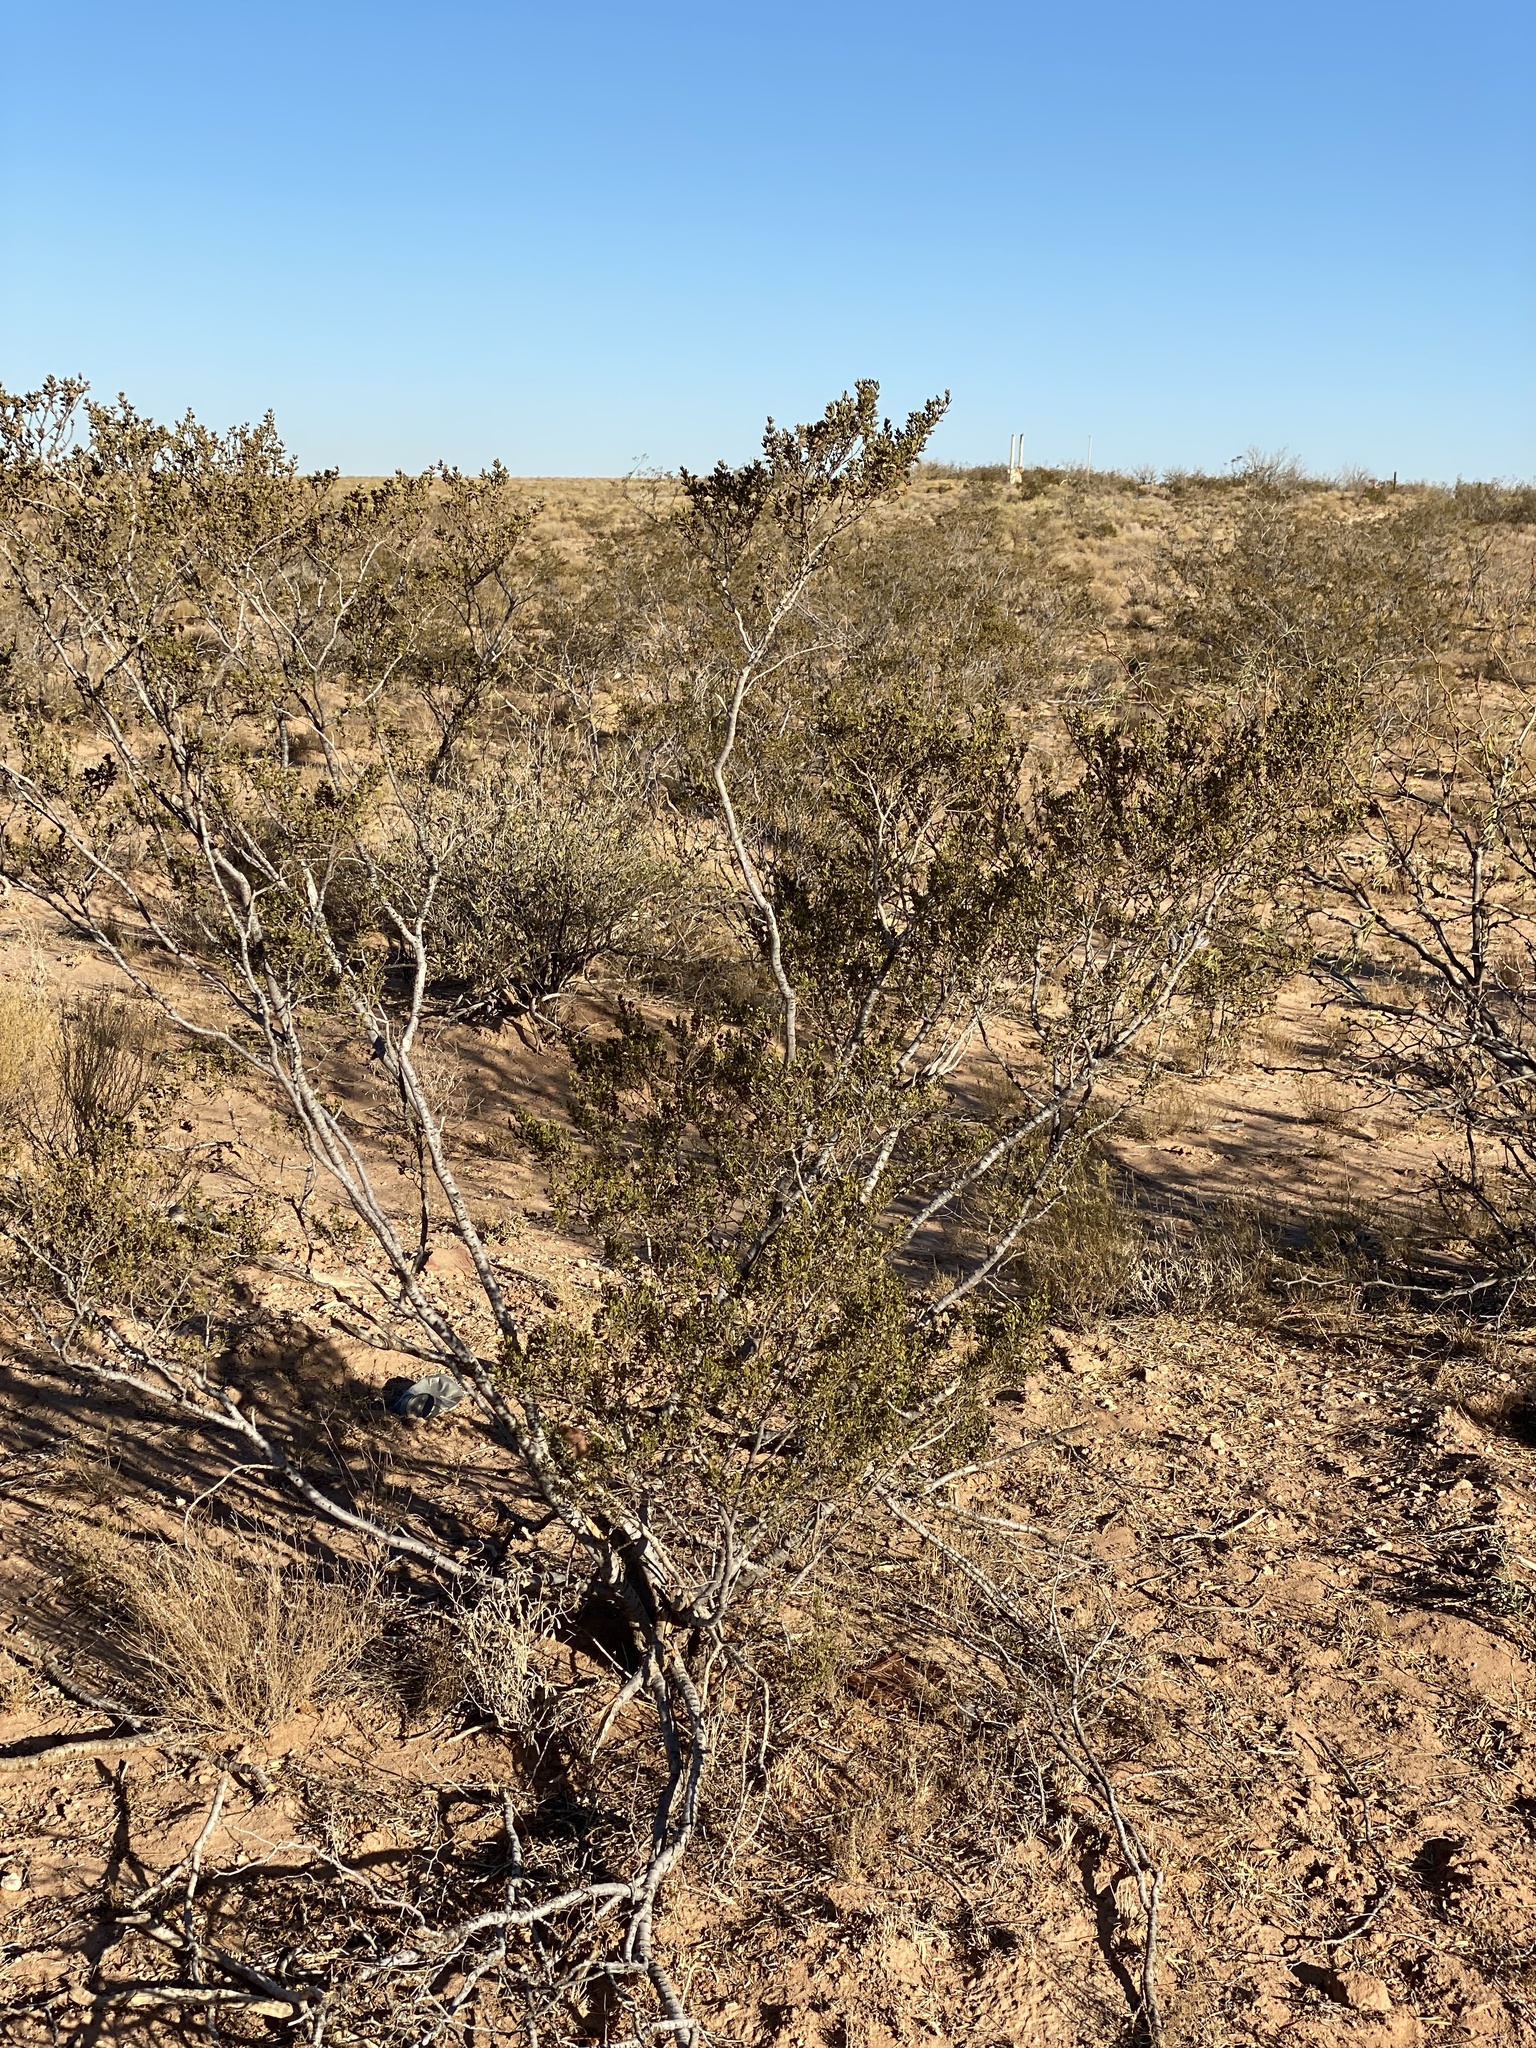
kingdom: Plantae
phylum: Tracheophyta
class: Magnoliopsida
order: Zygophyllales
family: Zygophyllaceae
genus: Larrea
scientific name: Larrea tridentata
